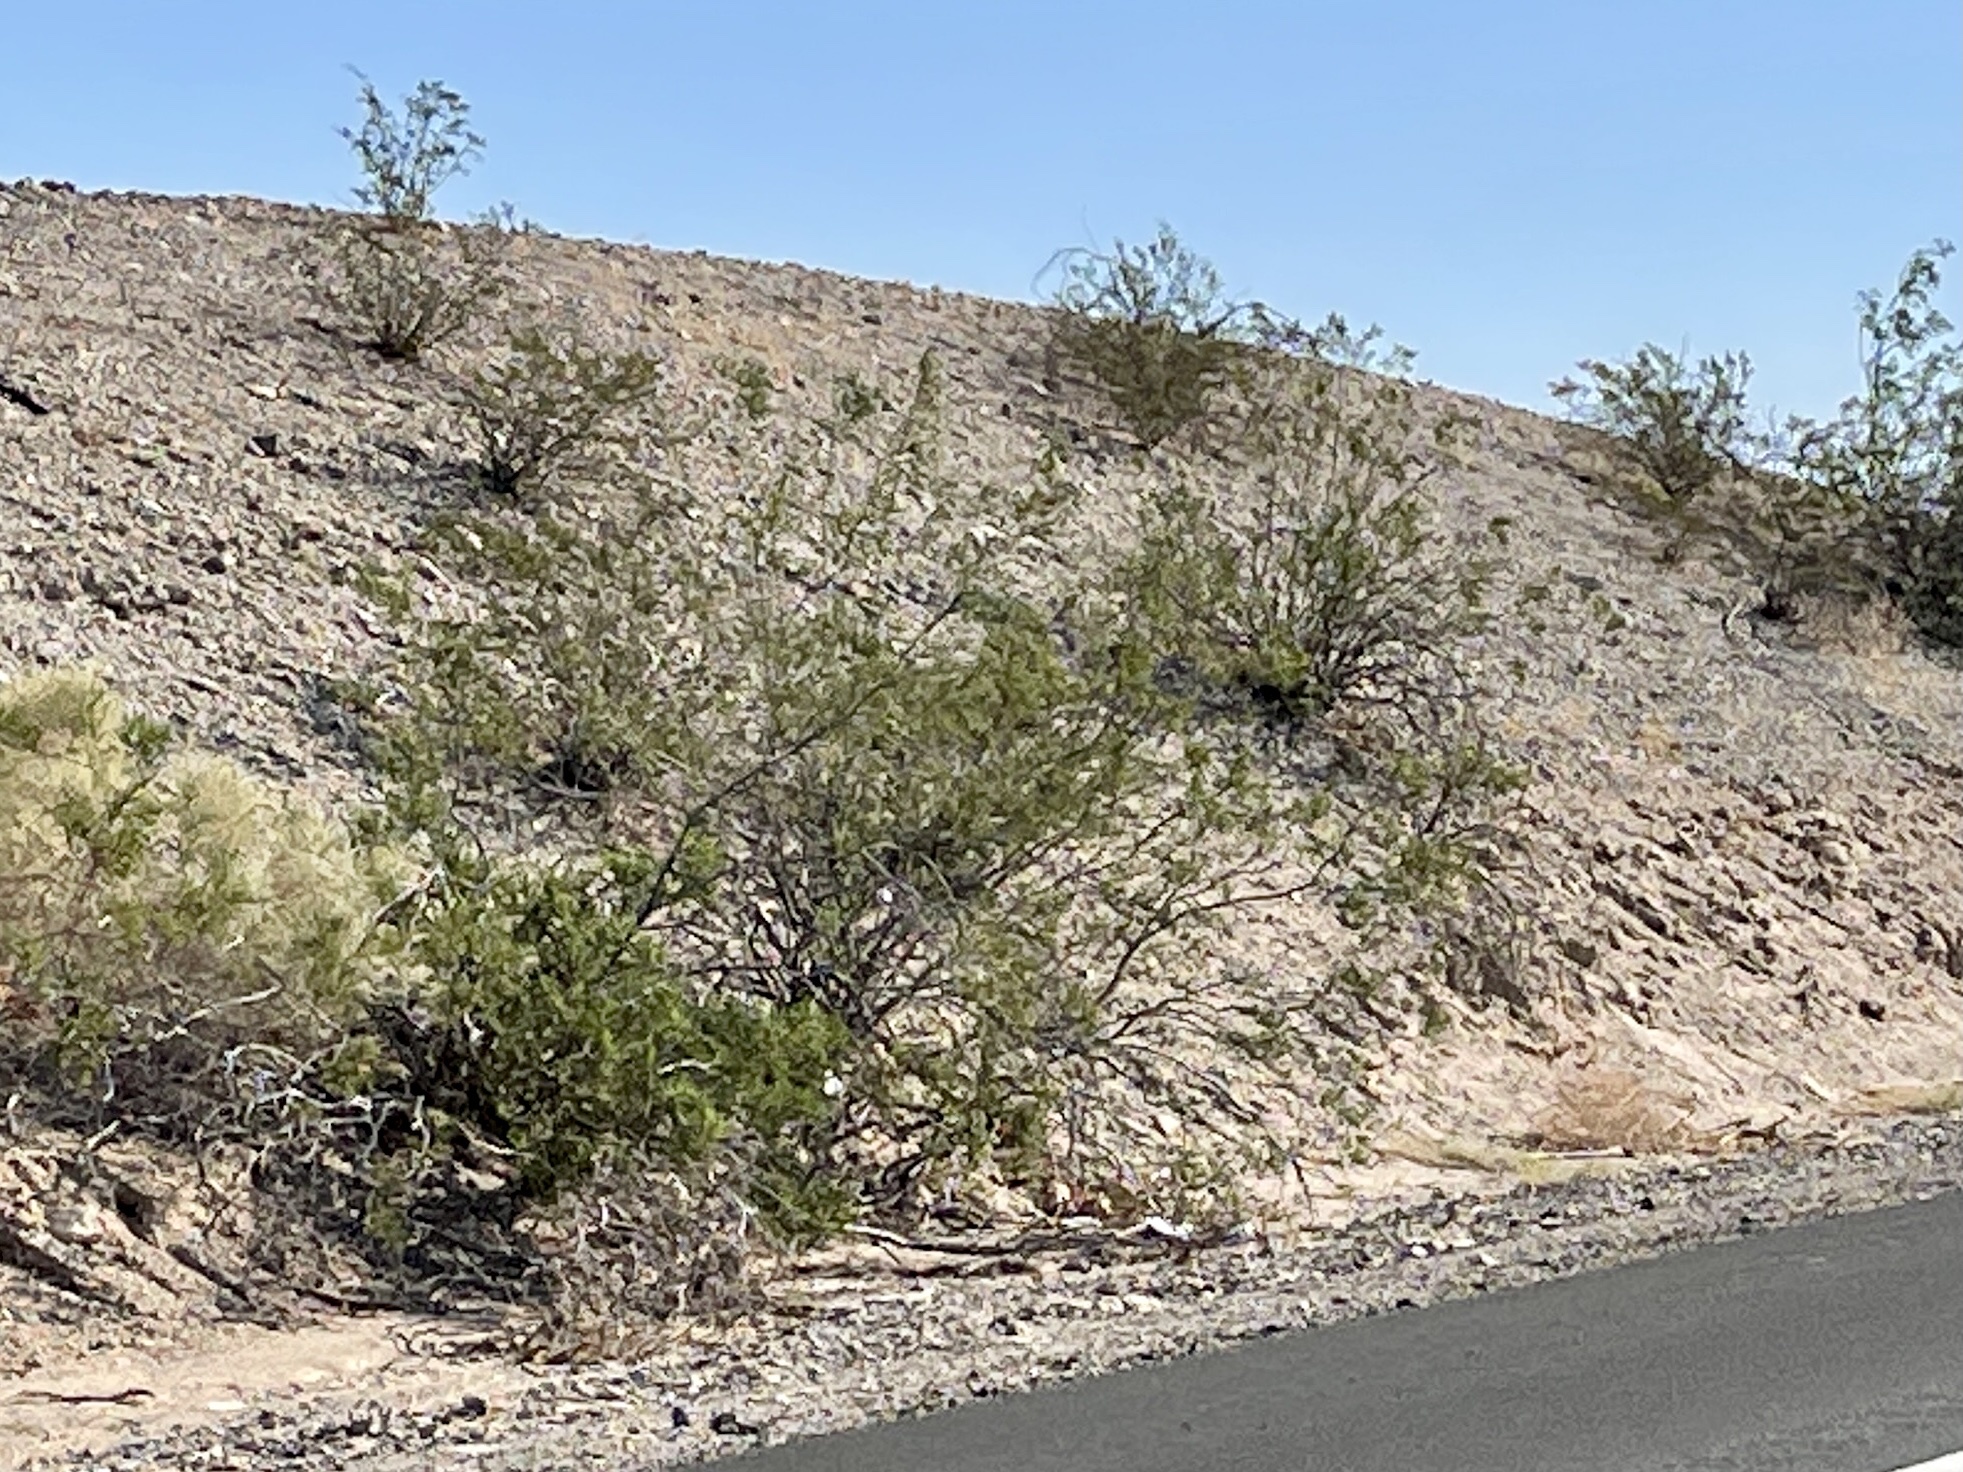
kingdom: Plantae
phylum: Tracheophyta
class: Magnoliopsida
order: Zygophyllales
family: Zygophyllaceae
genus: Larrea
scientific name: Larrea tridentata
